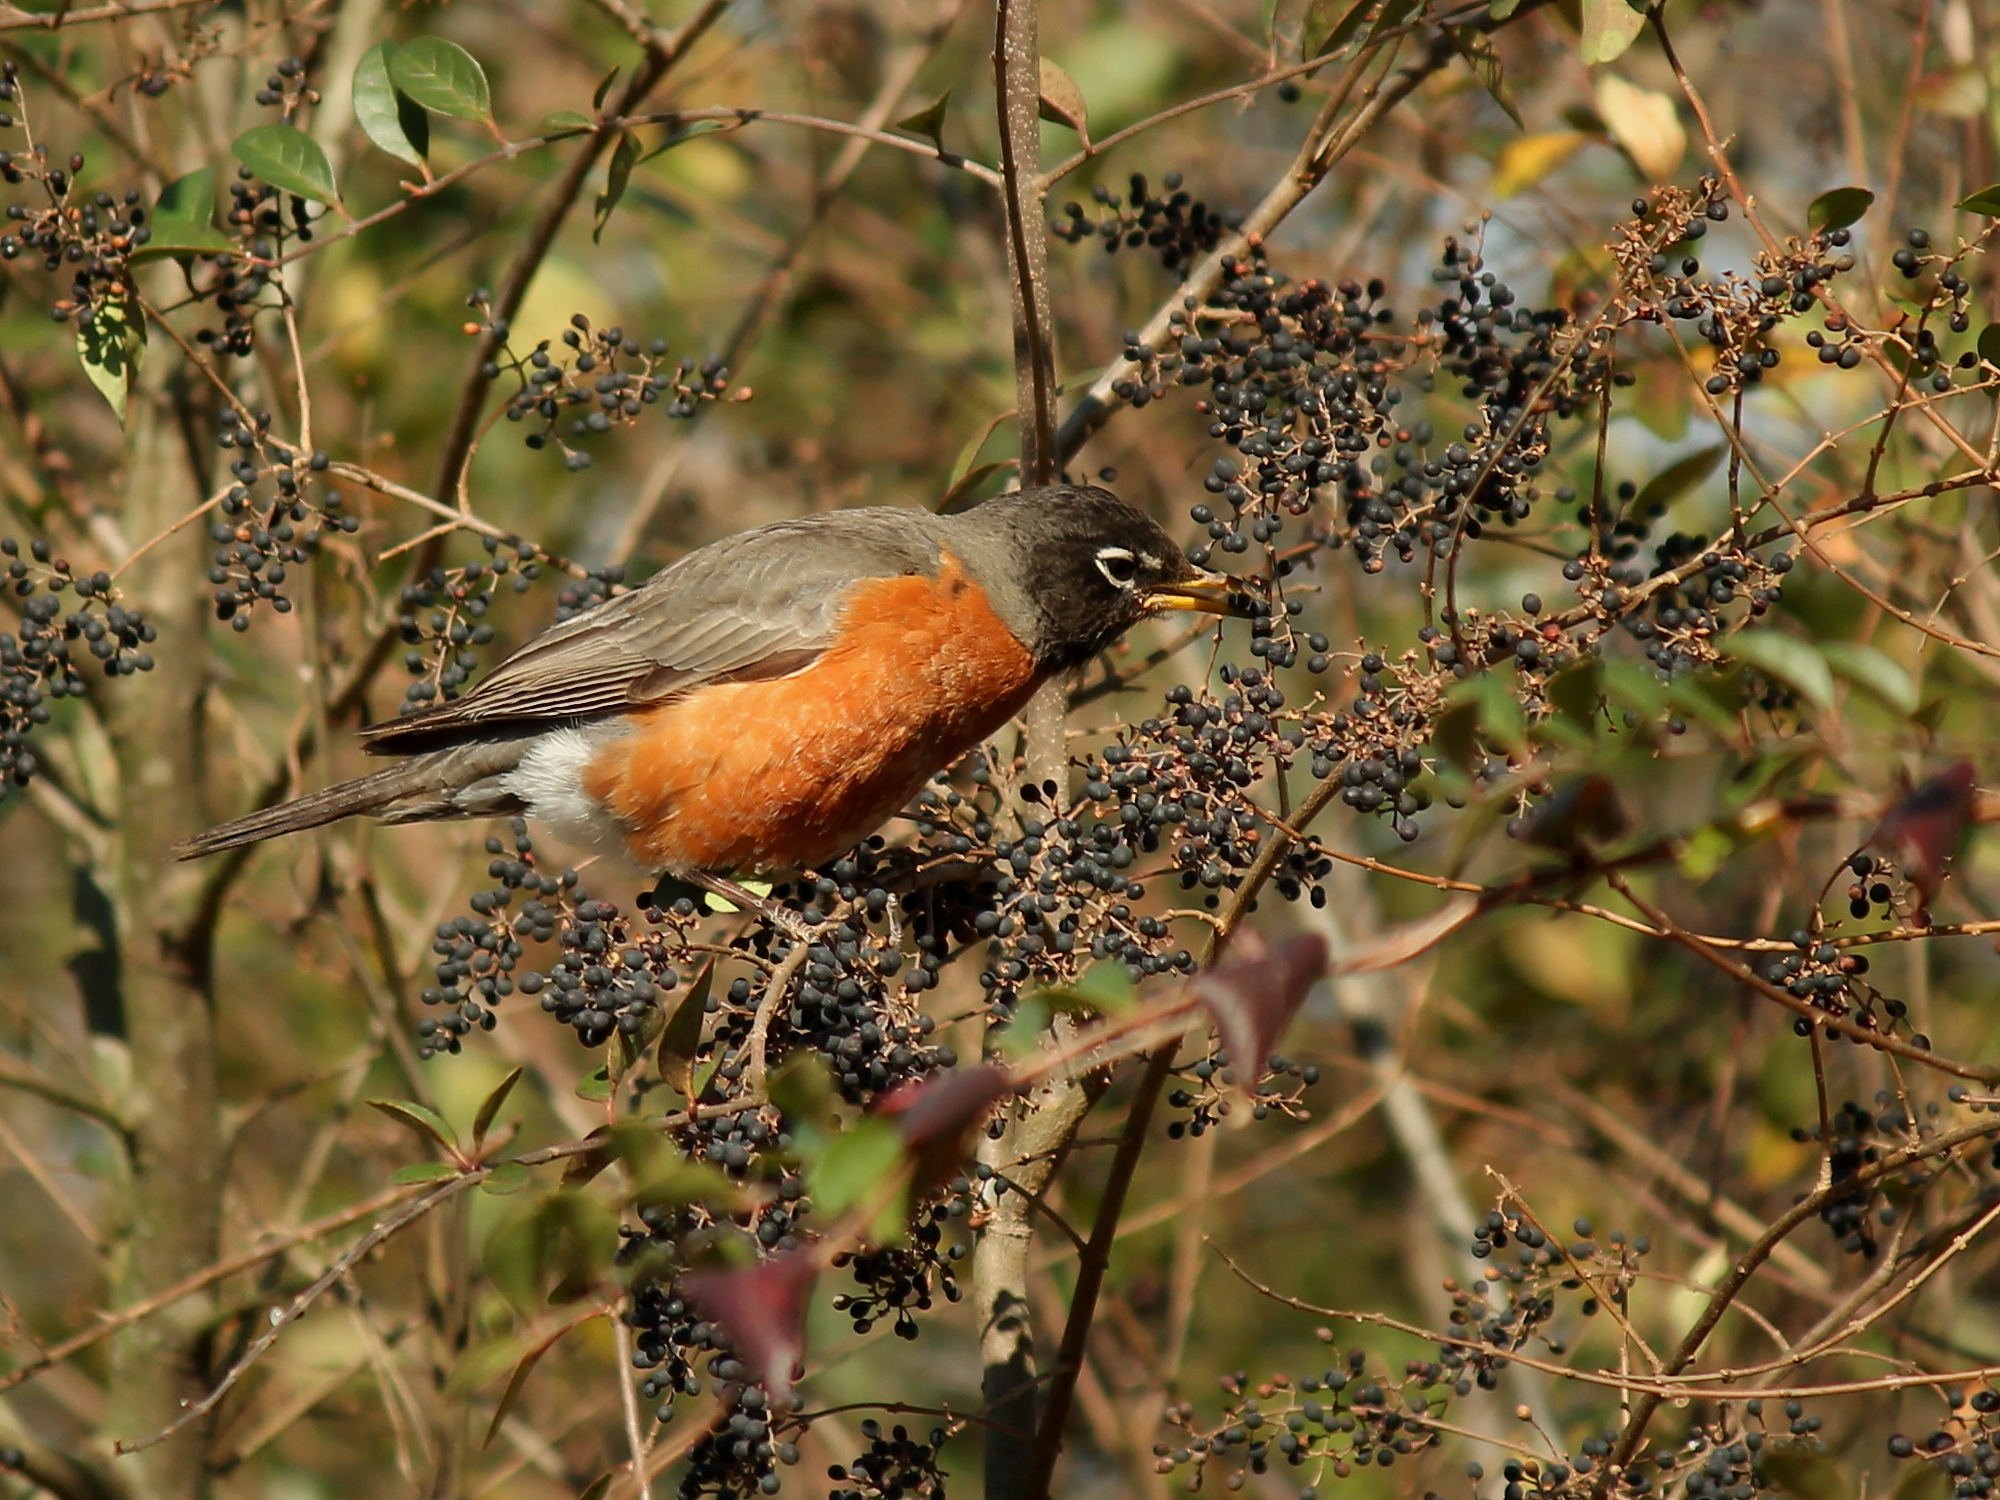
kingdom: Animalia
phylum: Chordata
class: Aves
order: Passeriformes
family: Turdidae
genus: Turdus
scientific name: Turdus migratorius
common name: American robin
